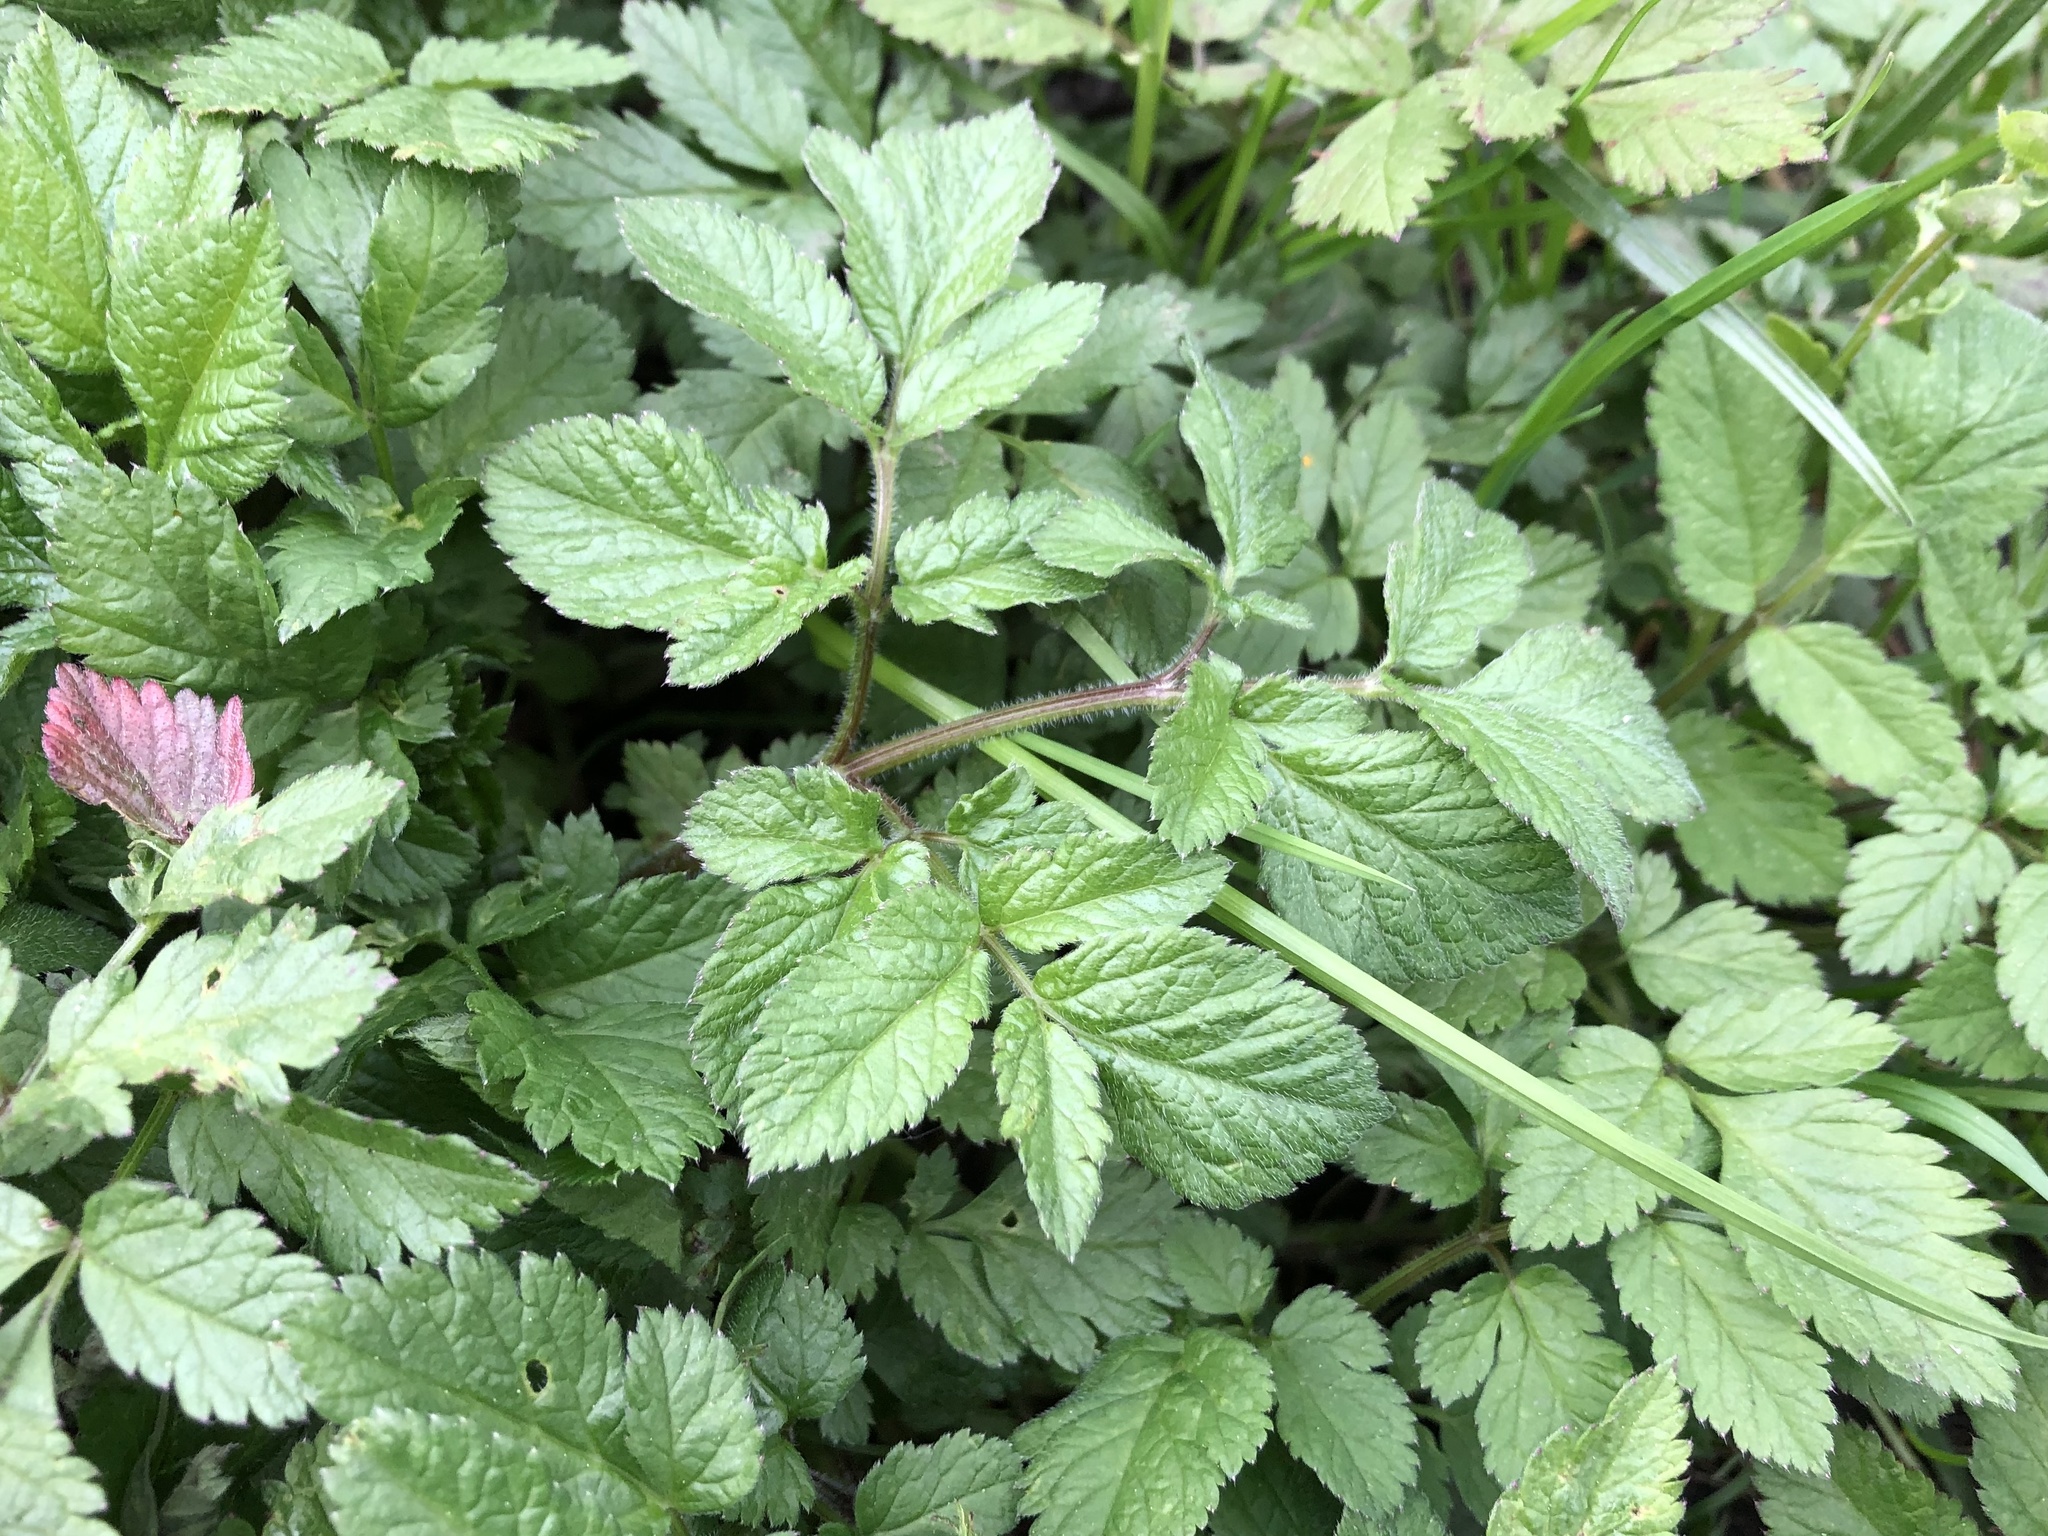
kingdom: Plantae
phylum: Tracheophyta
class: Magnoliopsida
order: Apiales
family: Apiaceae
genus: Chaerophyllum
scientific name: Chaerophyllum aromaticum
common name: Broadleaf chervil
